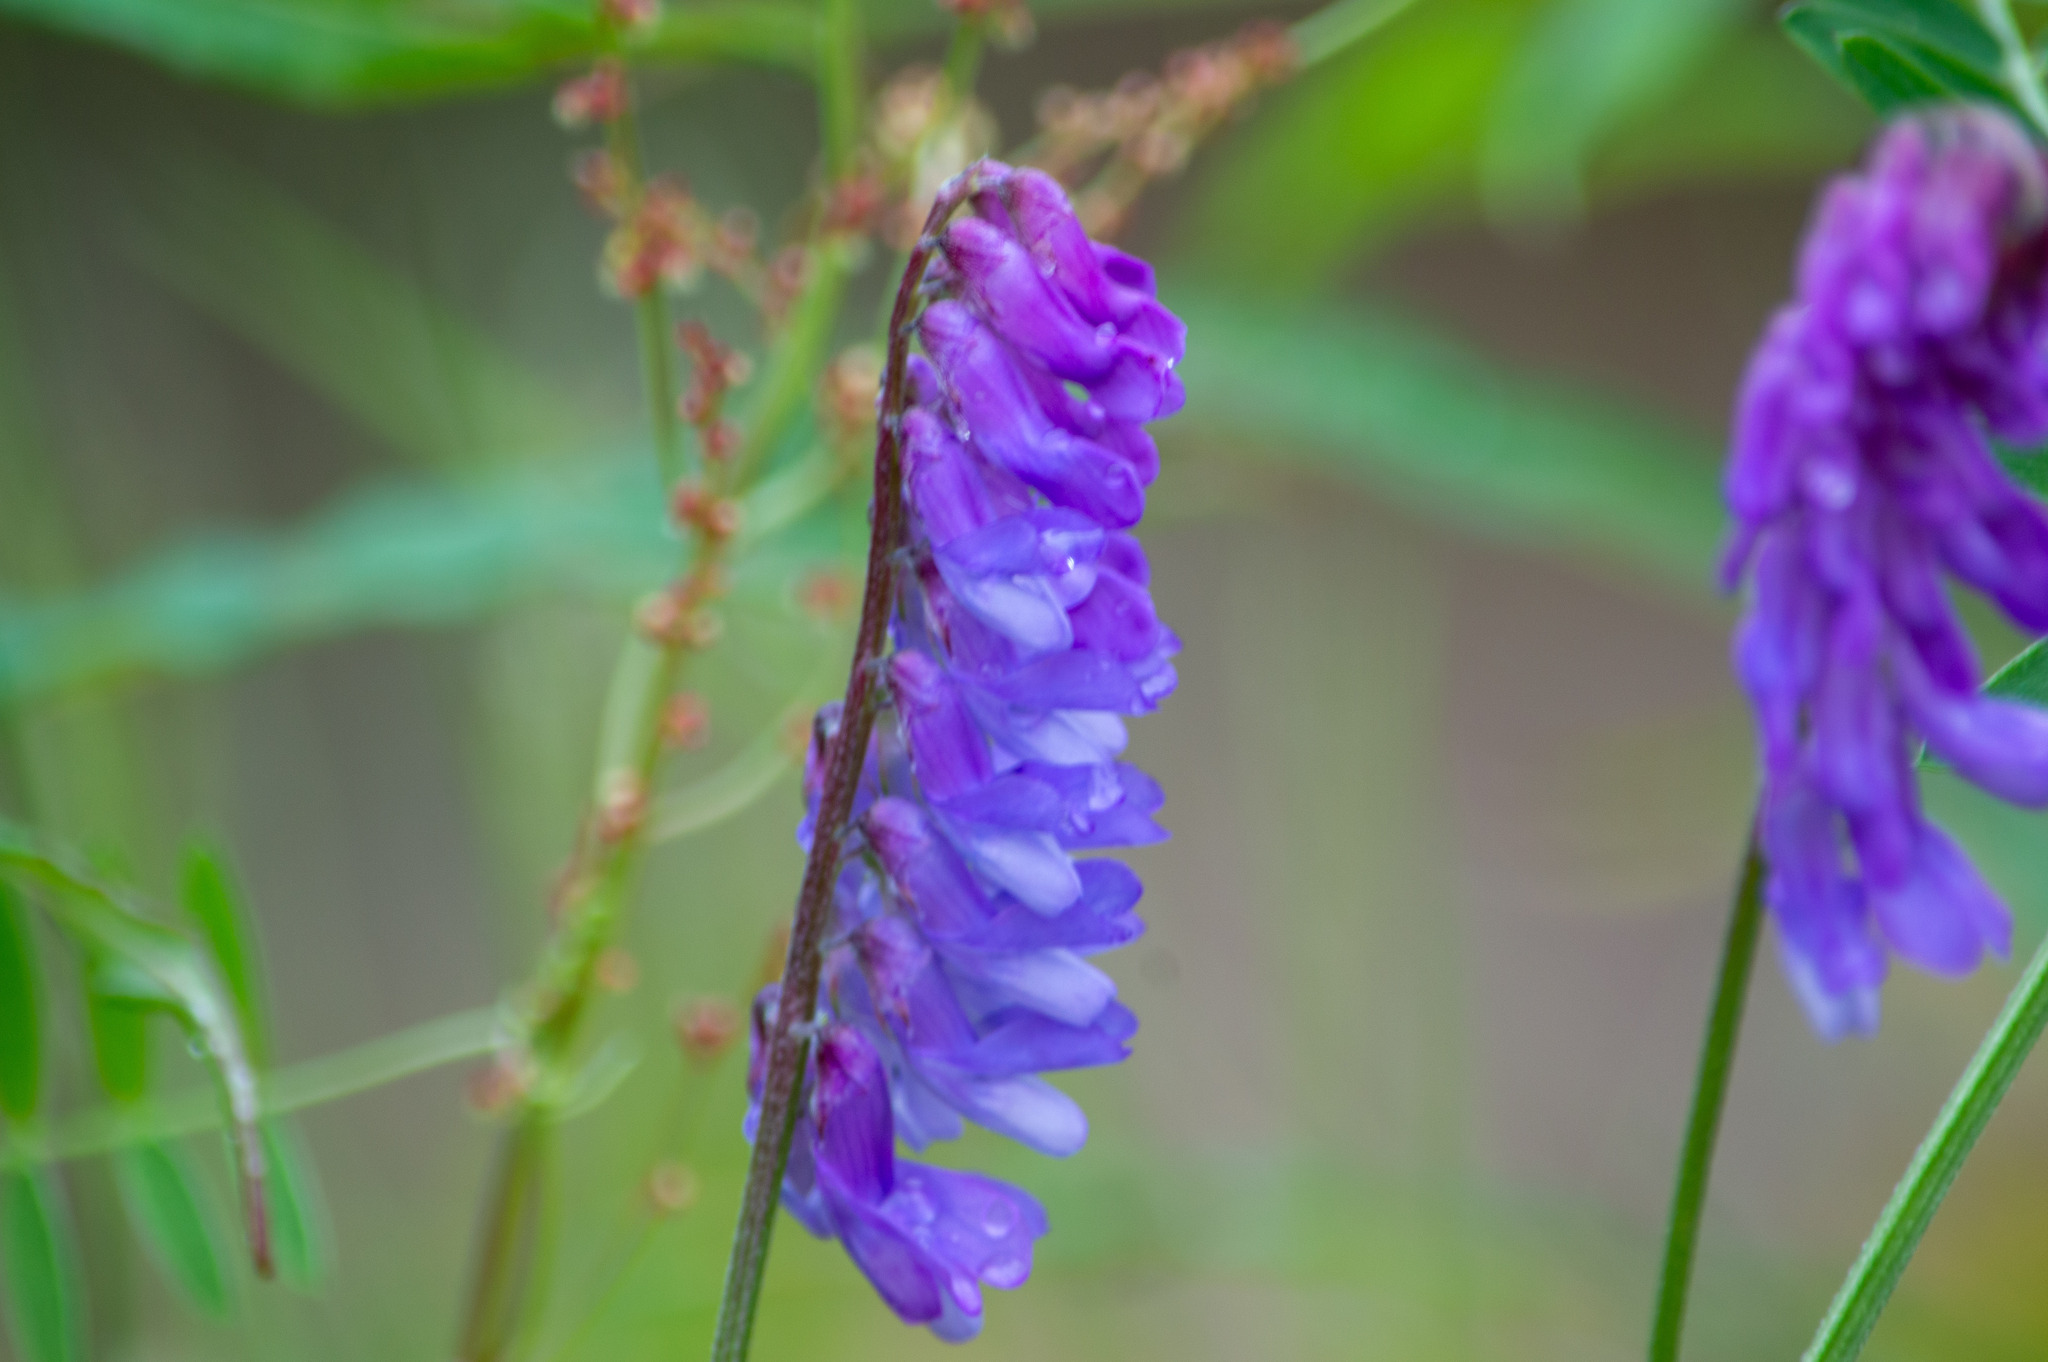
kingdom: Plantae
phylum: Tracheophyta
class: Magnoliopsida
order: Fabales
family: Fabaceae
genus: Vicia
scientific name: Vicia cracca
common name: Bird vetch
